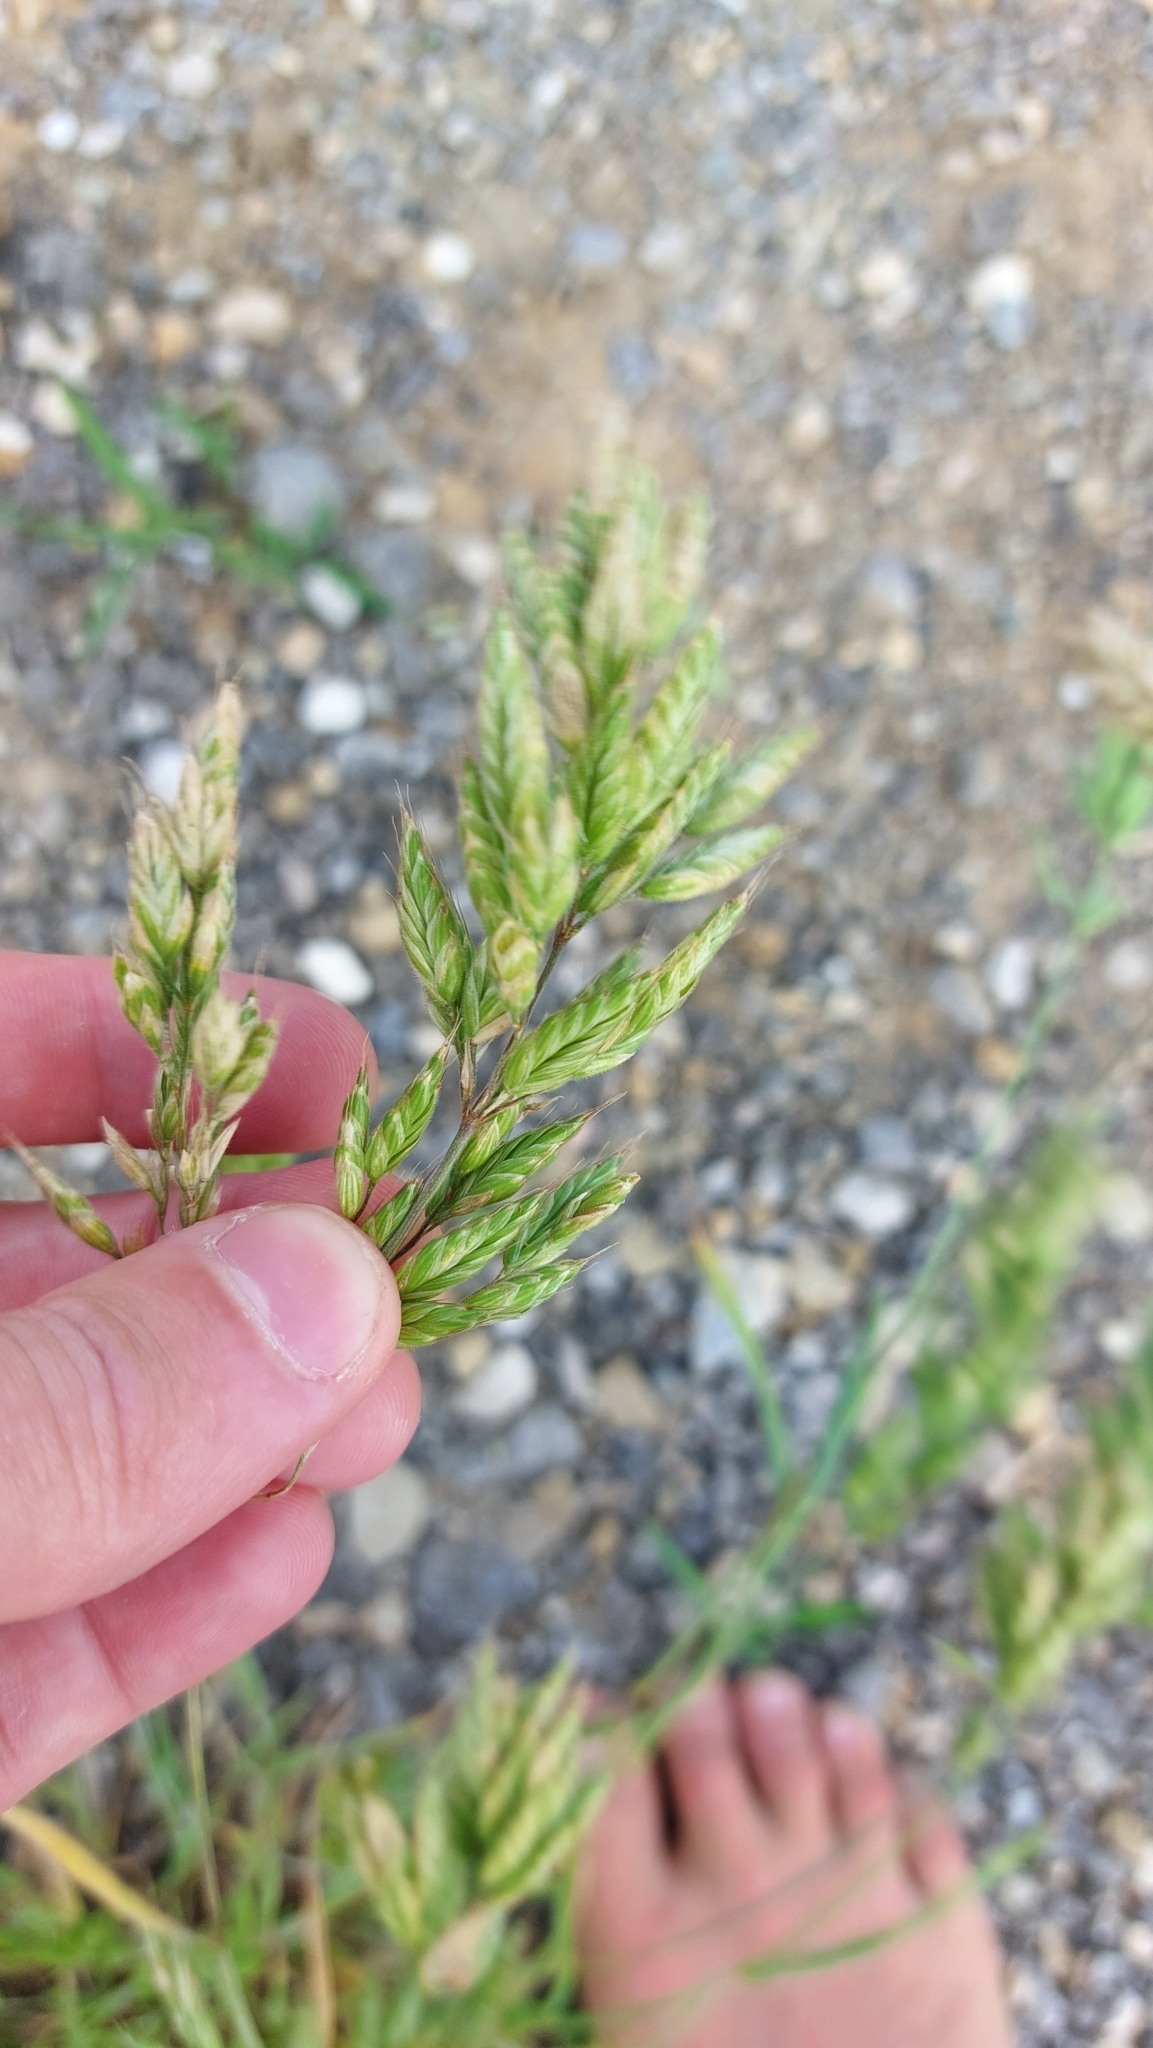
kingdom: Plantae
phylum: Tracheophyta
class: Liliopsida
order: Poales
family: Poaceae
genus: Bromus
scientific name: Bromus hordeaceus
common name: Soft brome
